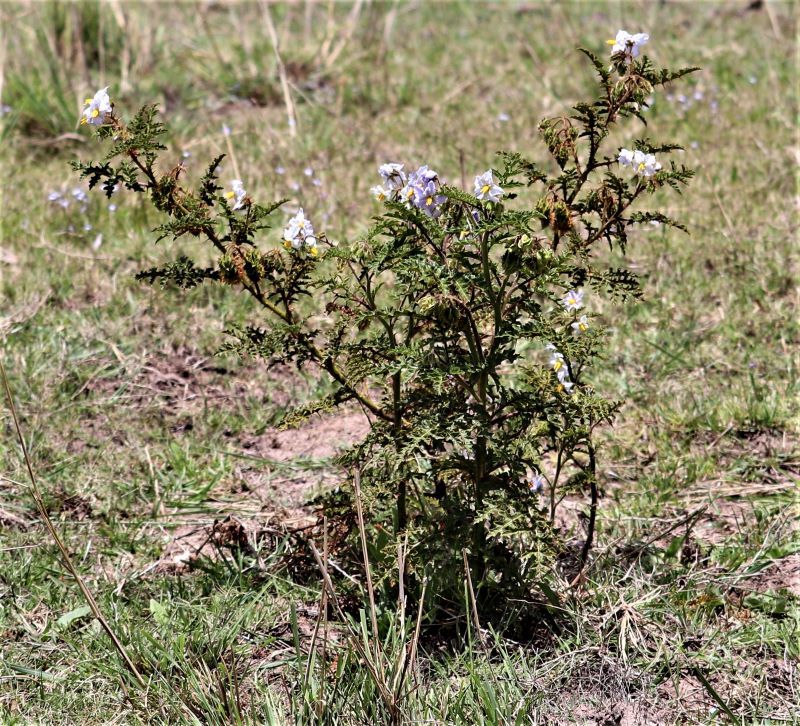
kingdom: Plantae
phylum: Tracheophyta
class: Magnoliopsida
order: Solanales
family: Solanaceae
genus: Solanum
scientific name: Solanum sisymbriifolium
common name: Red buffalo-bur
